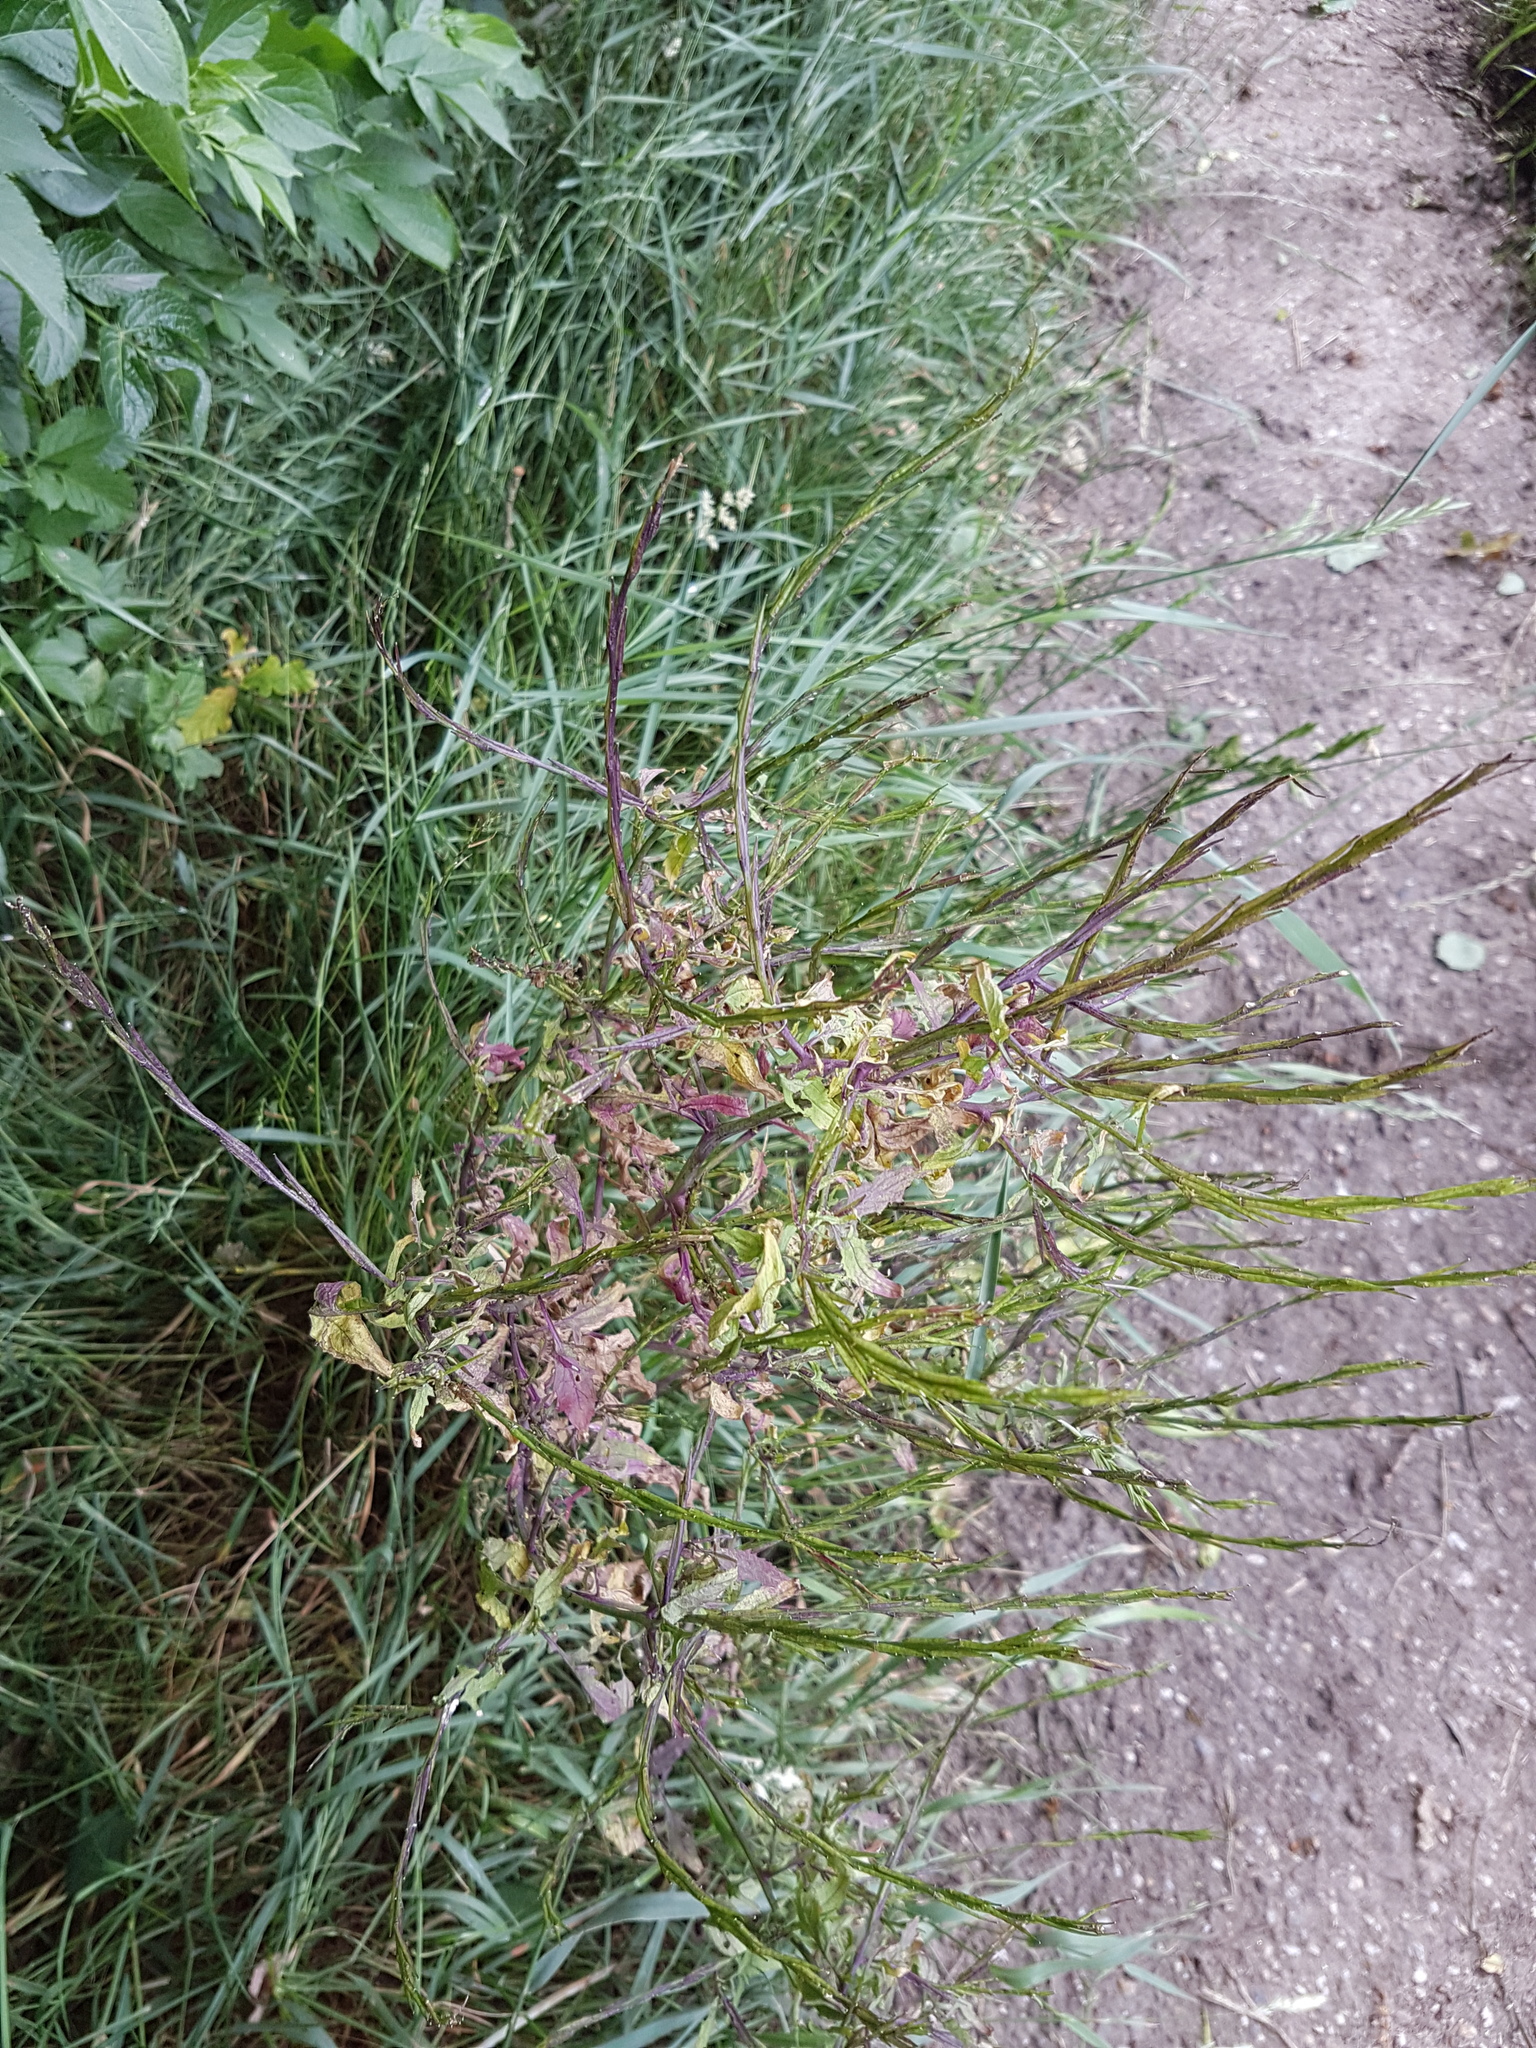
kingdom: Plantae
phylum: Tracheophyta
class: Magnoliopsida
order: Brassicales
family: Brassicaceae
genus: Sisymbrium
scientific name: Sisymbrium officinale
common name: Hedge mustard
